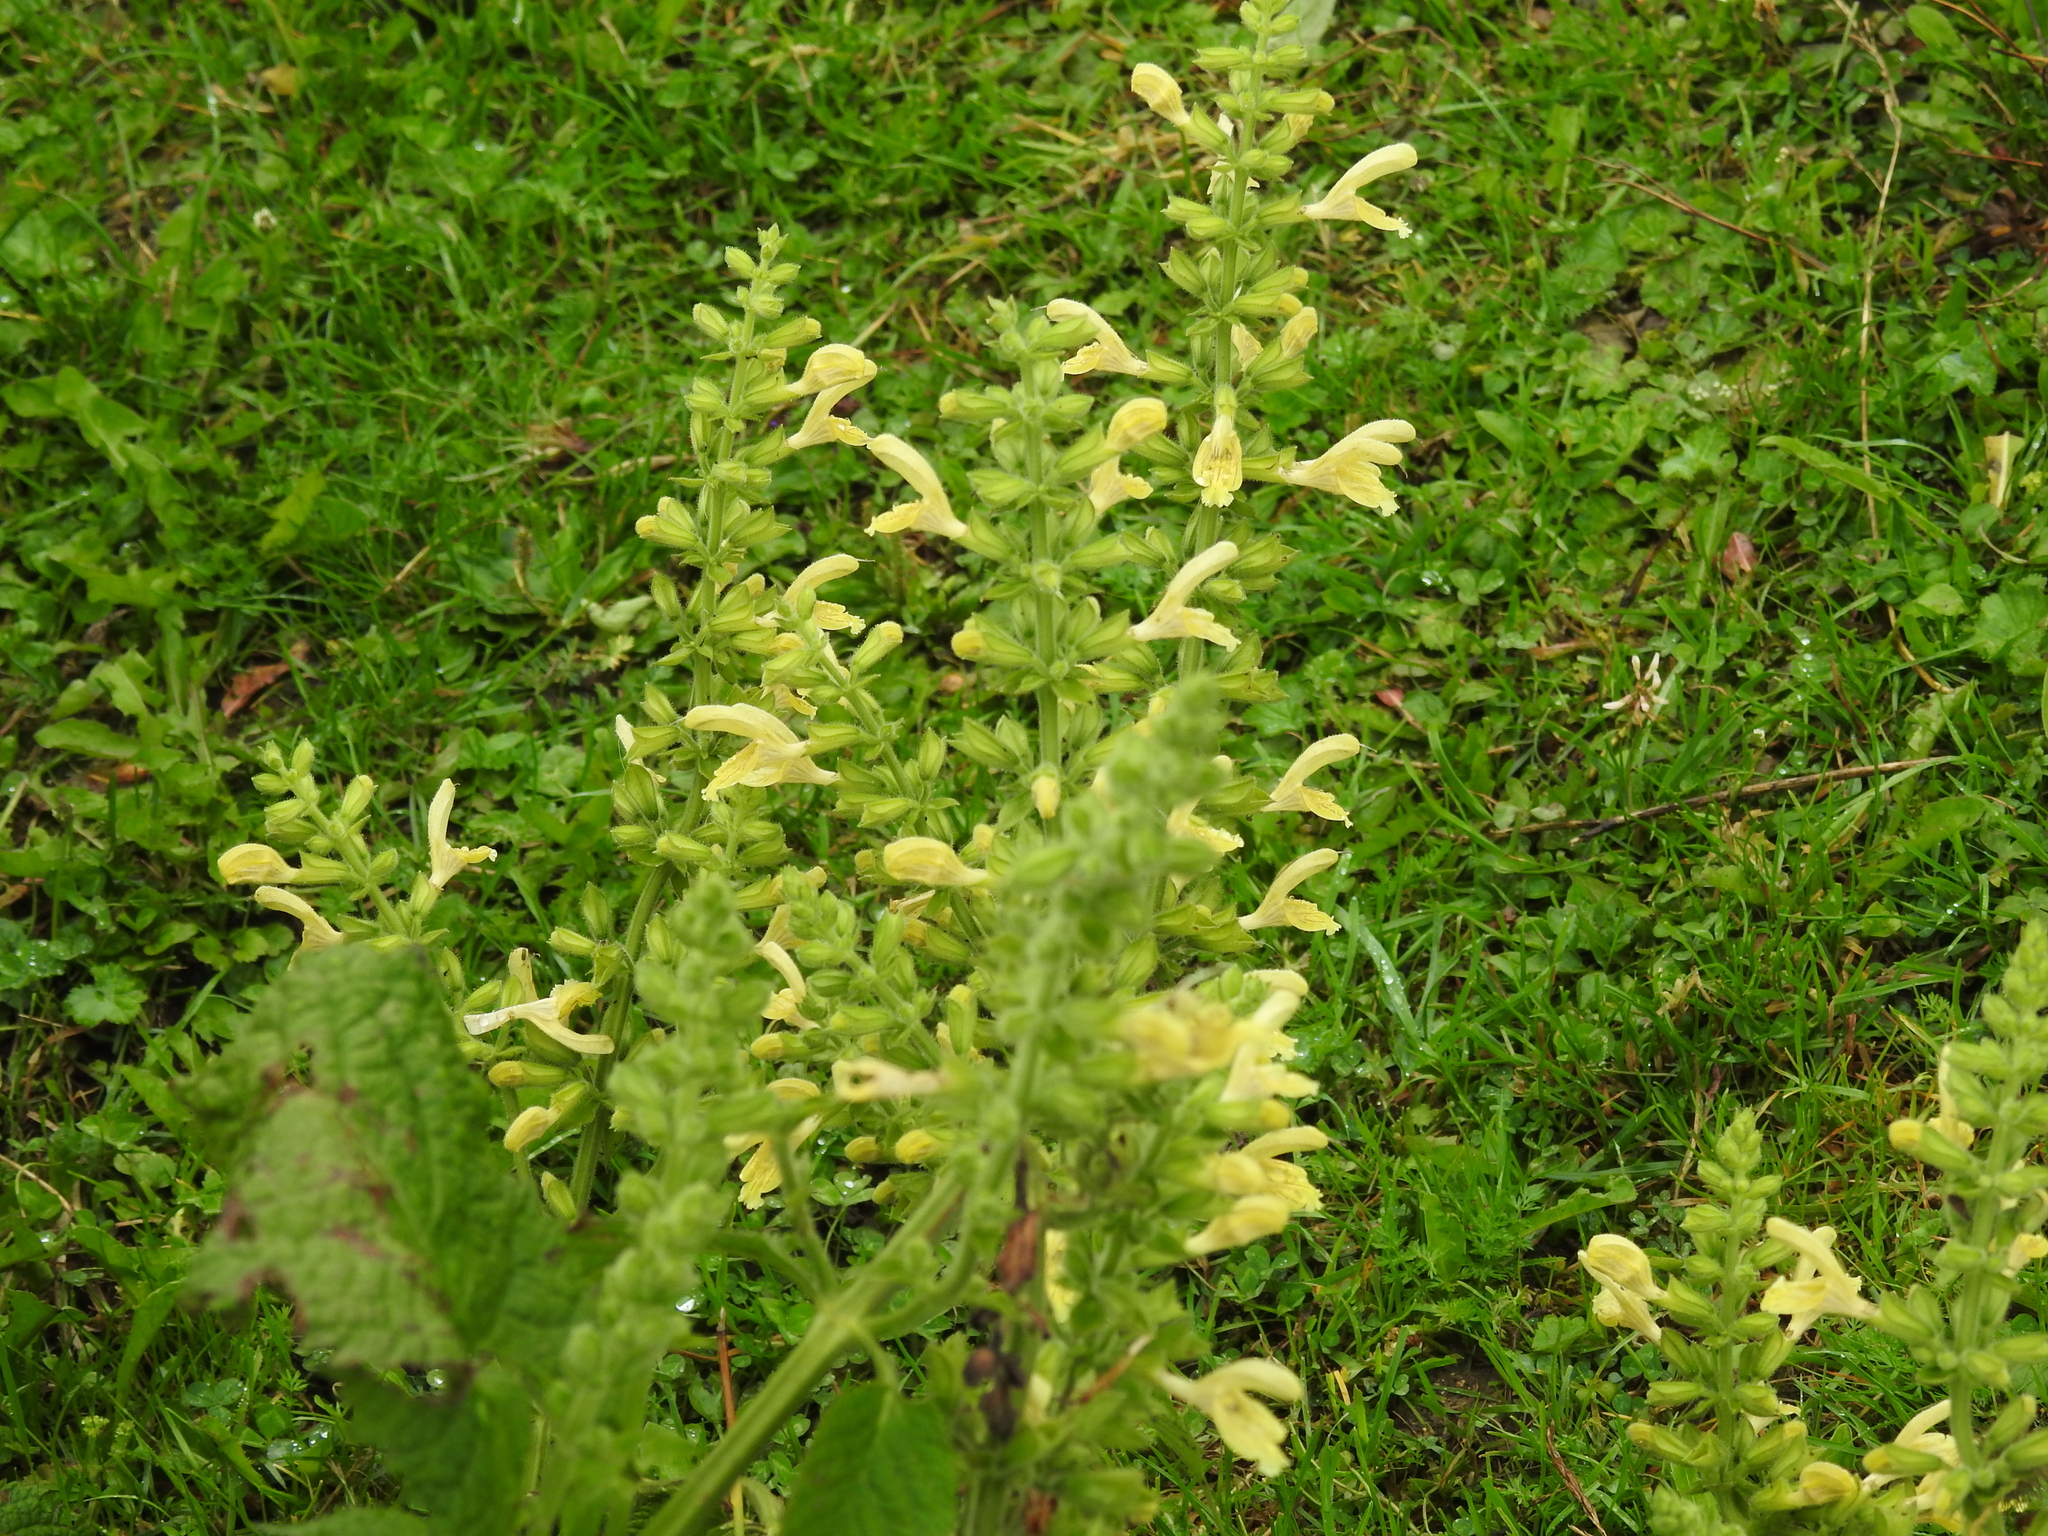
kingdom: Plantae
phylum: Tracheophyta
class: Magnoliopsida
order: Lamiales
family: Lamiaceae
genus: Salvia
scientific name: Salvia glutinosa
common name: Sticky clary
